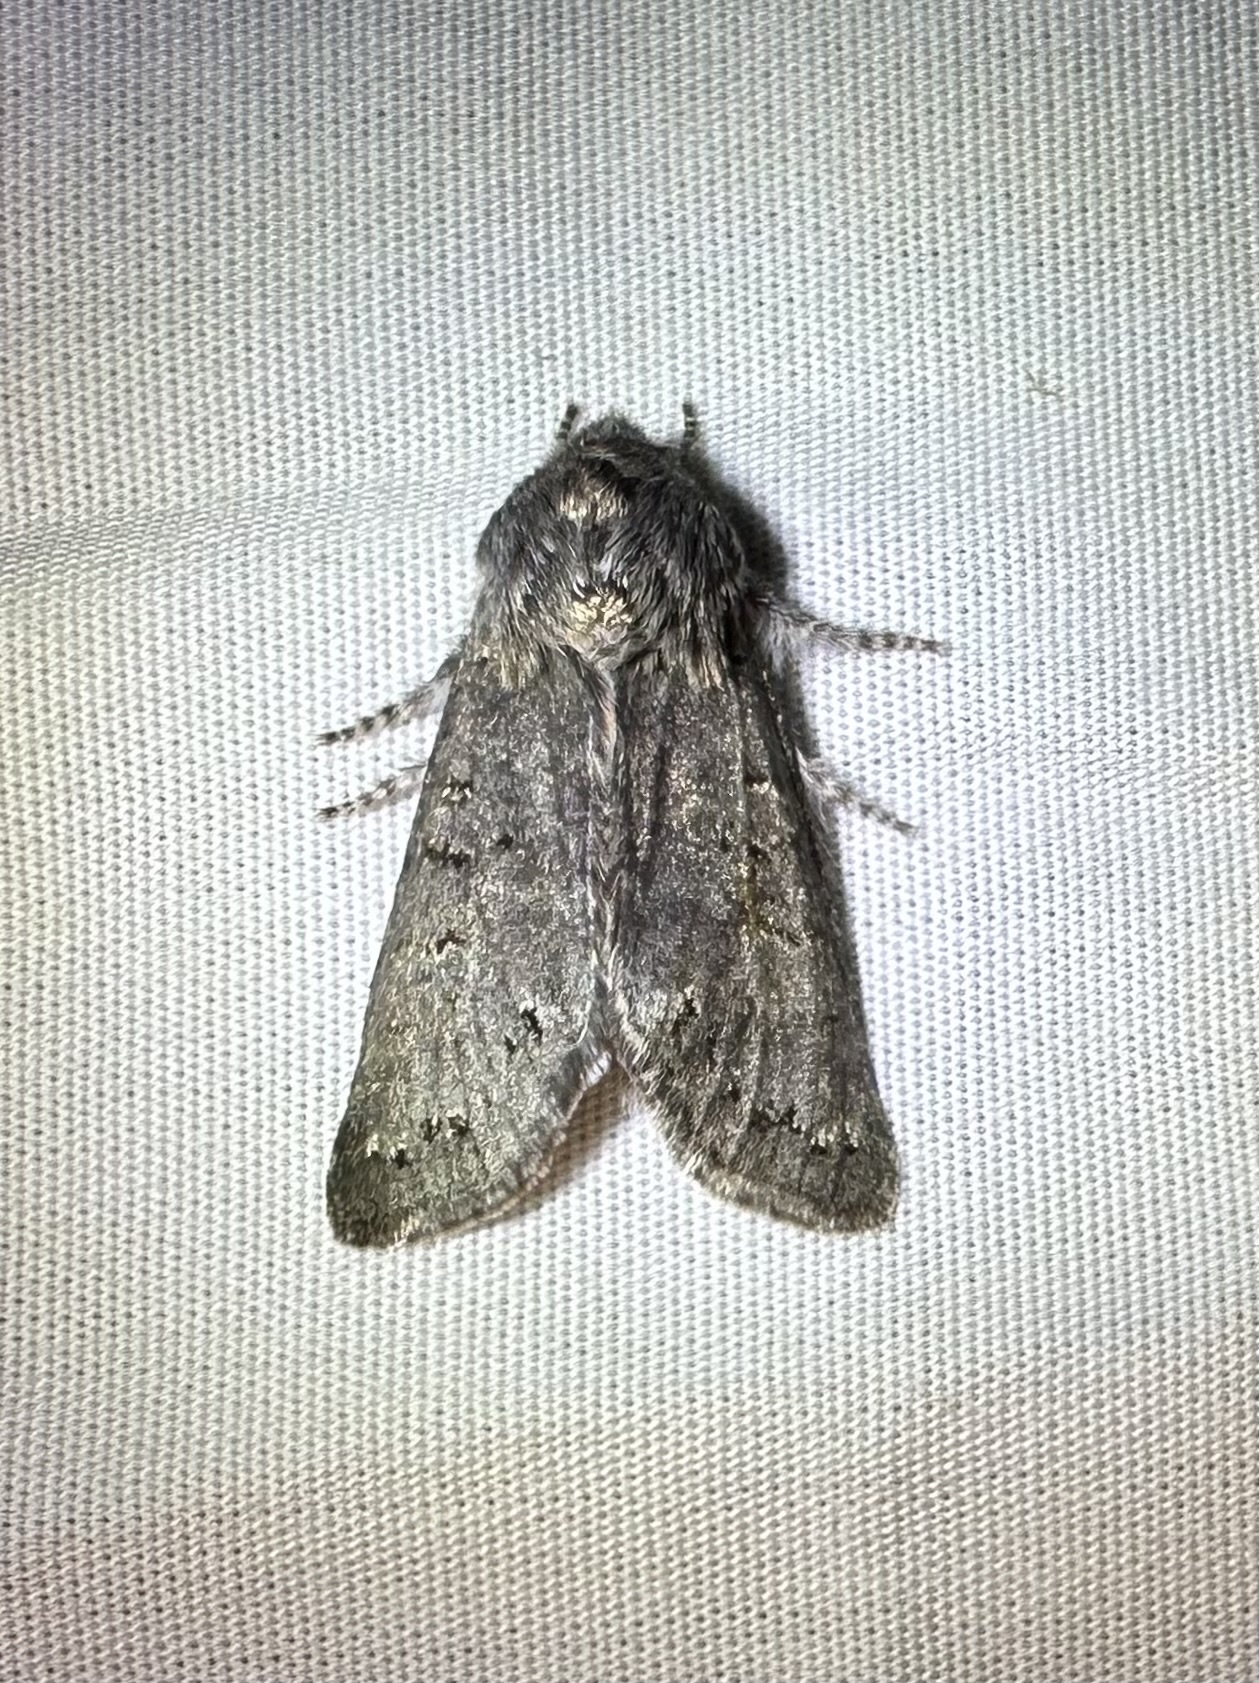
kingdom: Animalia
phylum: Arthropoda
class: Insecta
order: Lepidoptera
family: Noctuidae
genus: Psaphida
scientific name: Psaphida rolandi
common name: Roland's sallow
